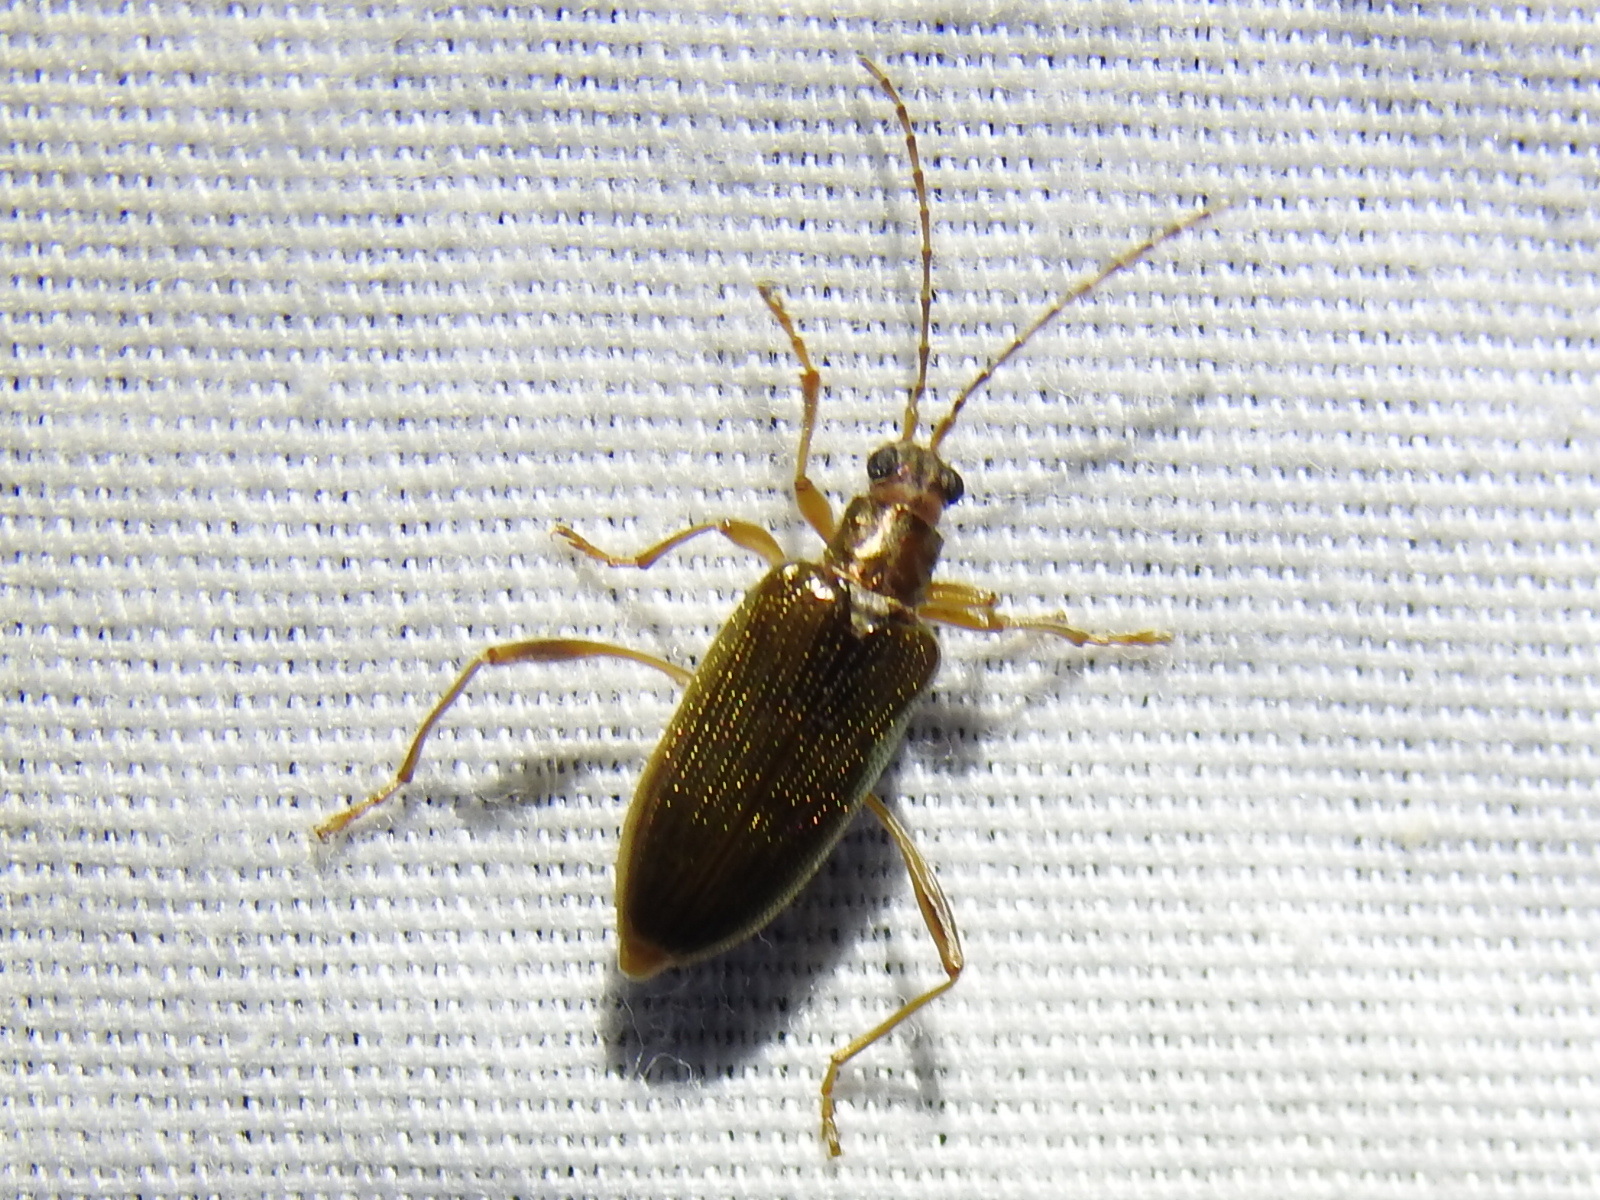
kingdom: Animalia
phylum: Arthropoda
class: Insecta
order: Coleoptera
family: Chrysomelidae
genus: Donacia
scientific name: Donacia hypoleuca
